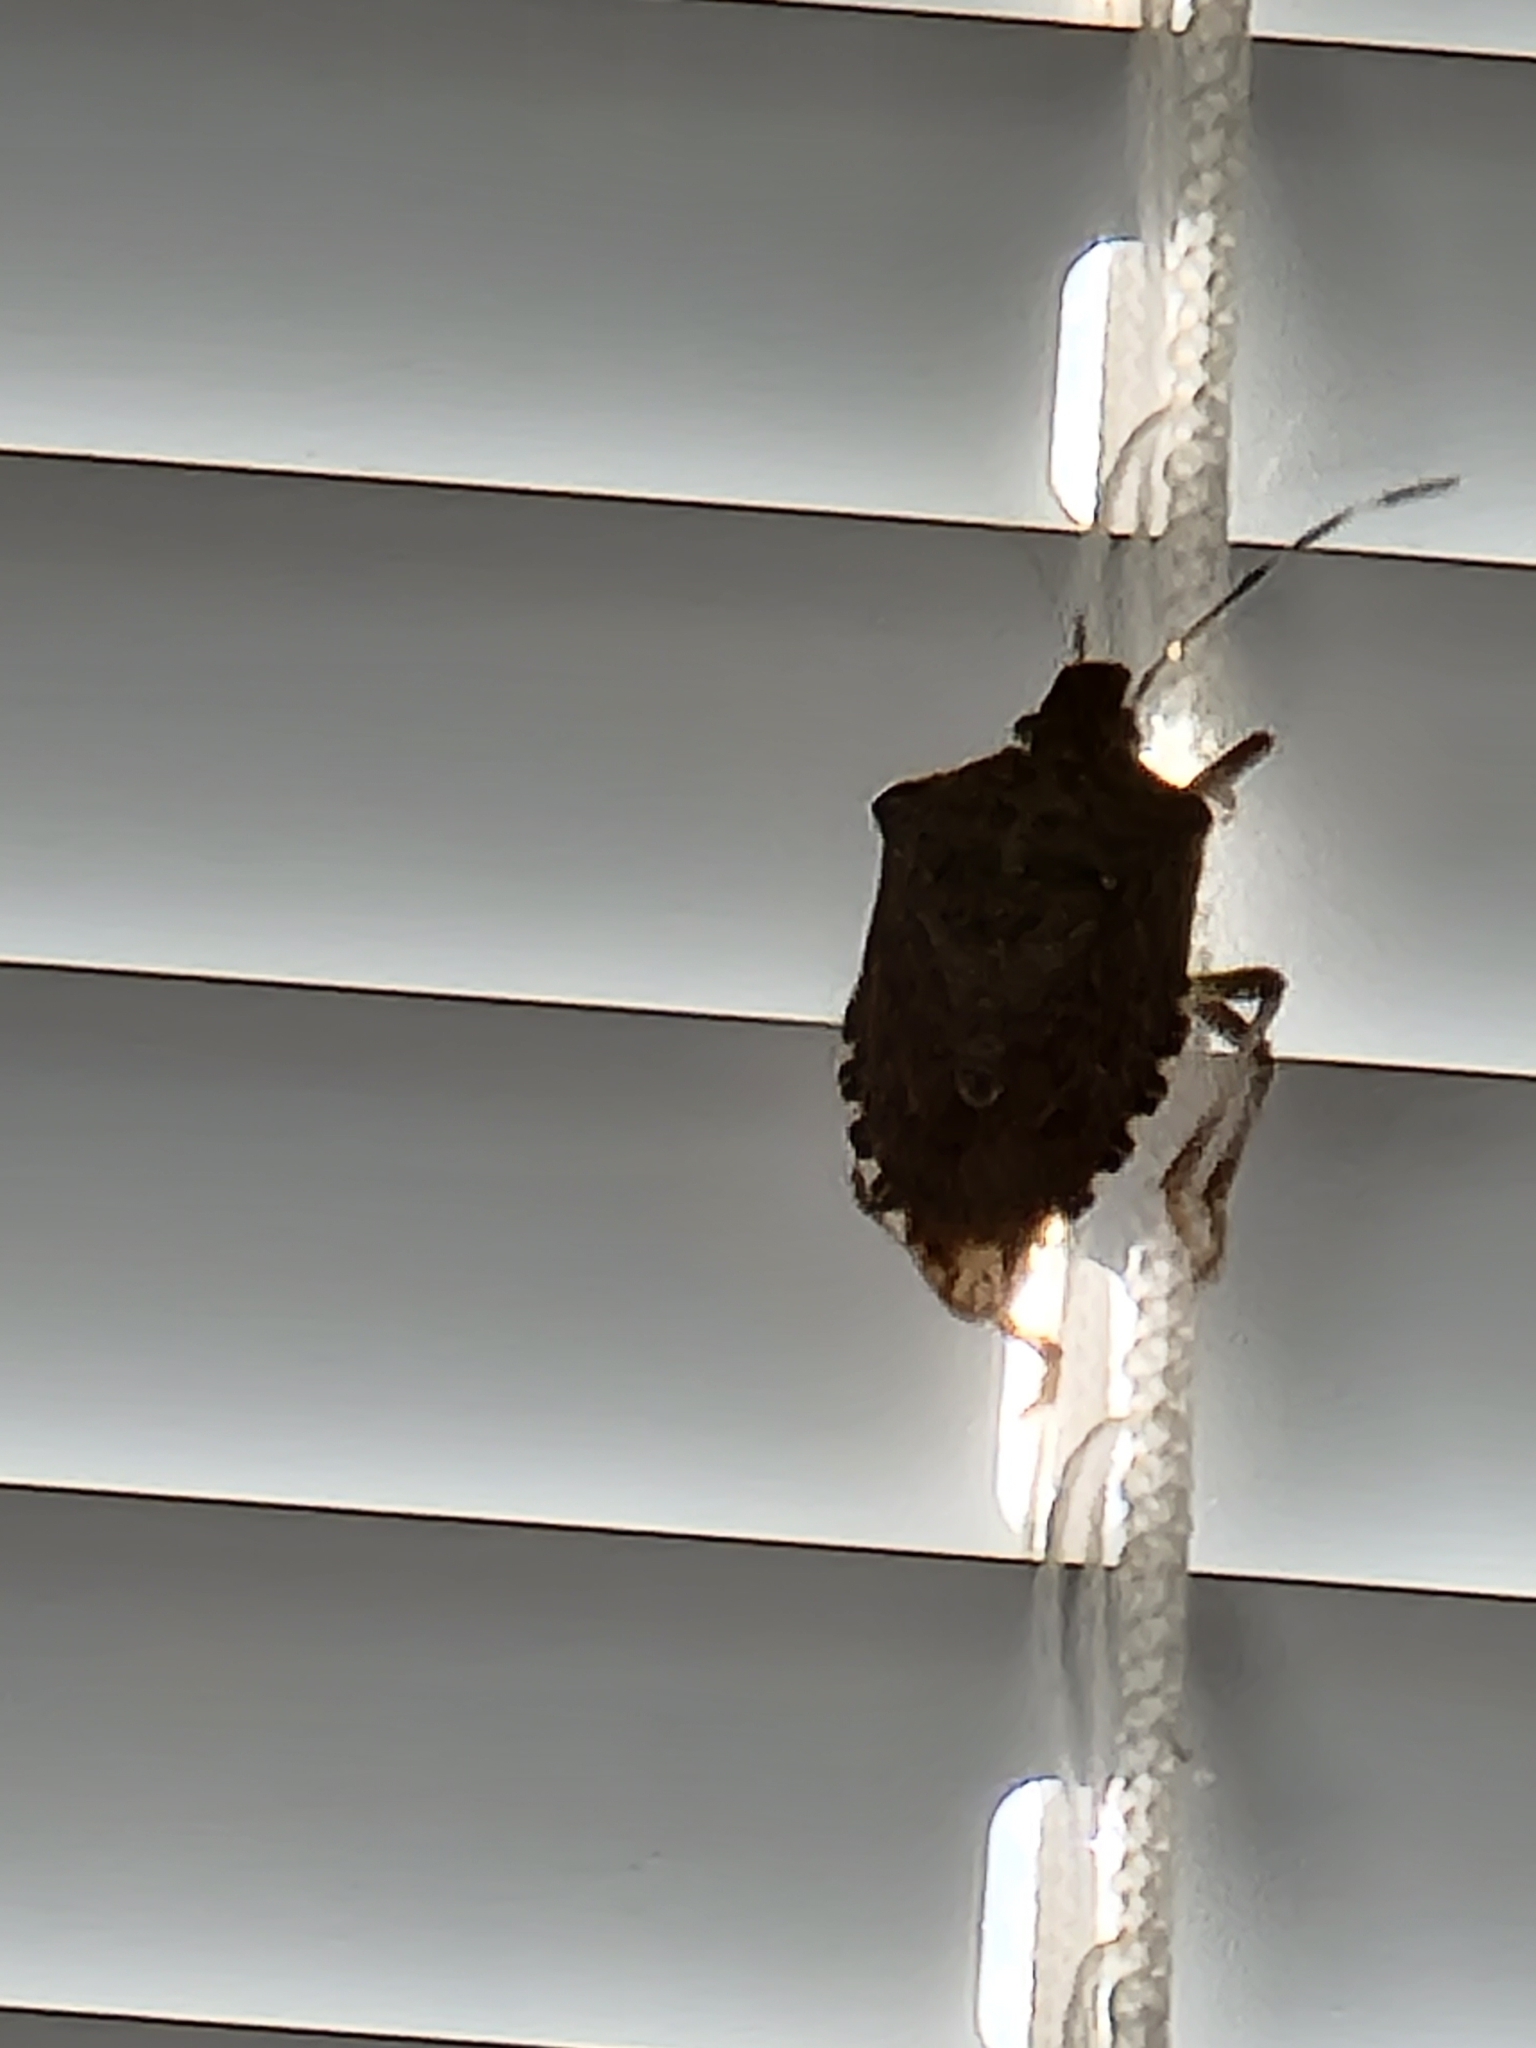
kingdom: Animalia
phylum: Arthropoda
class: Insecta
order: Hemiptera
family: Pentatomidae
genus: Halyomorpha
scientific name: Halyomorpha halys
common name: Brown marmorated stink bug
